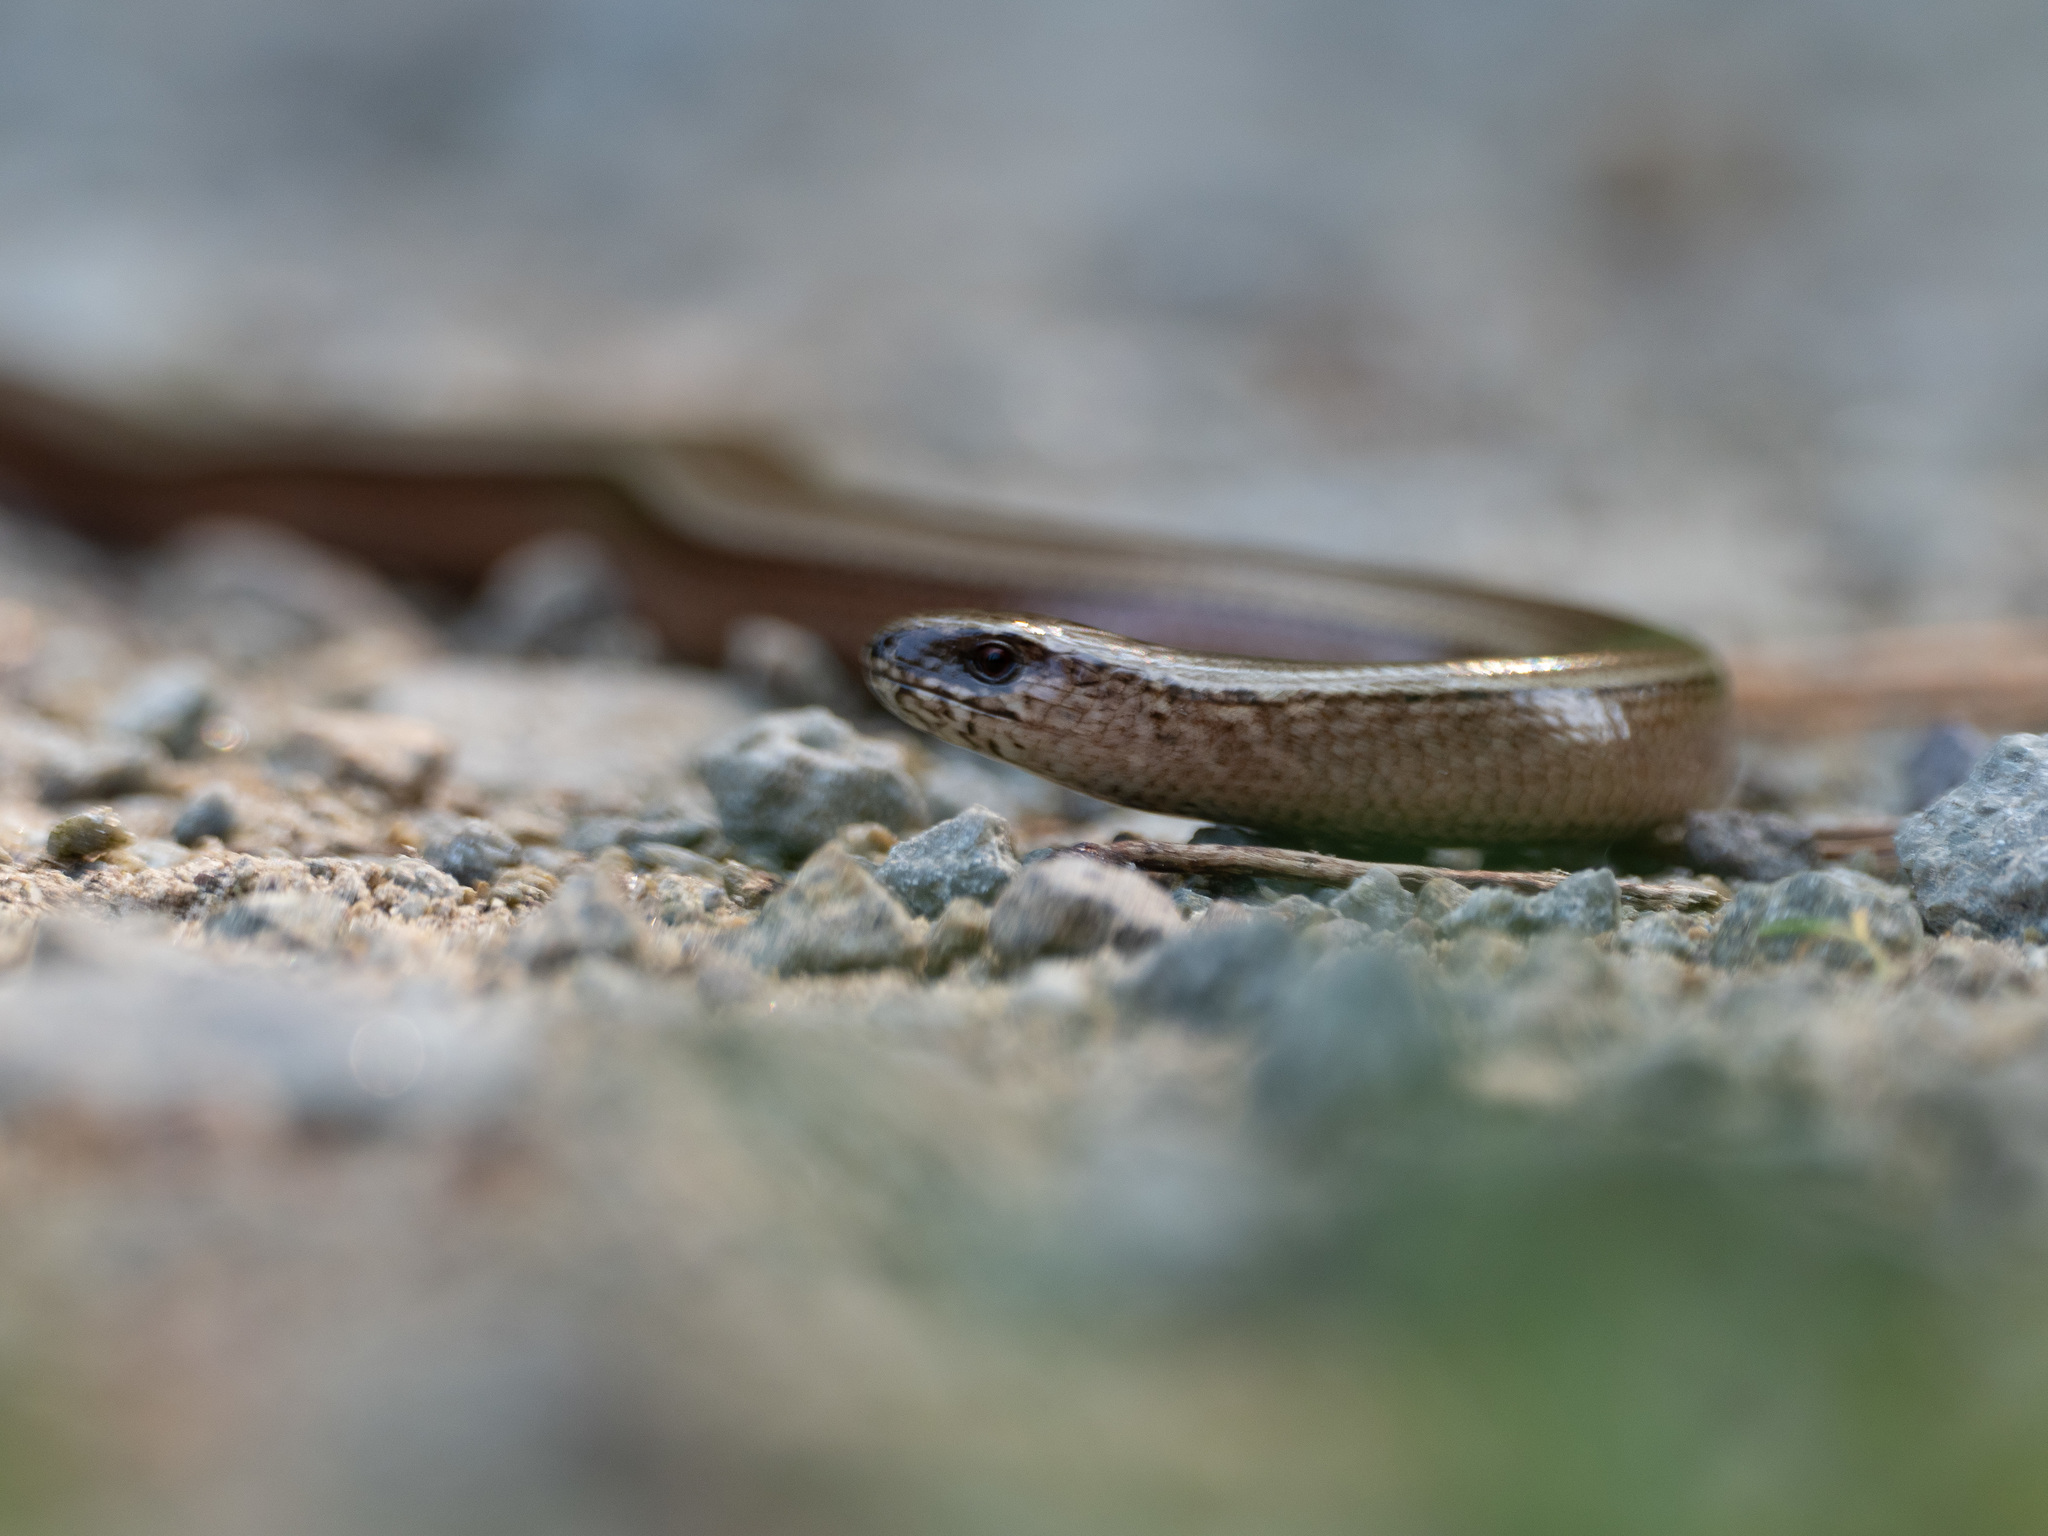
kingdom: Animalia
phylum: Chordata
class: Squamata
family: Anguidae
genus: Anguis
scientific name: Anguis fragilis
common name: Slow worm
